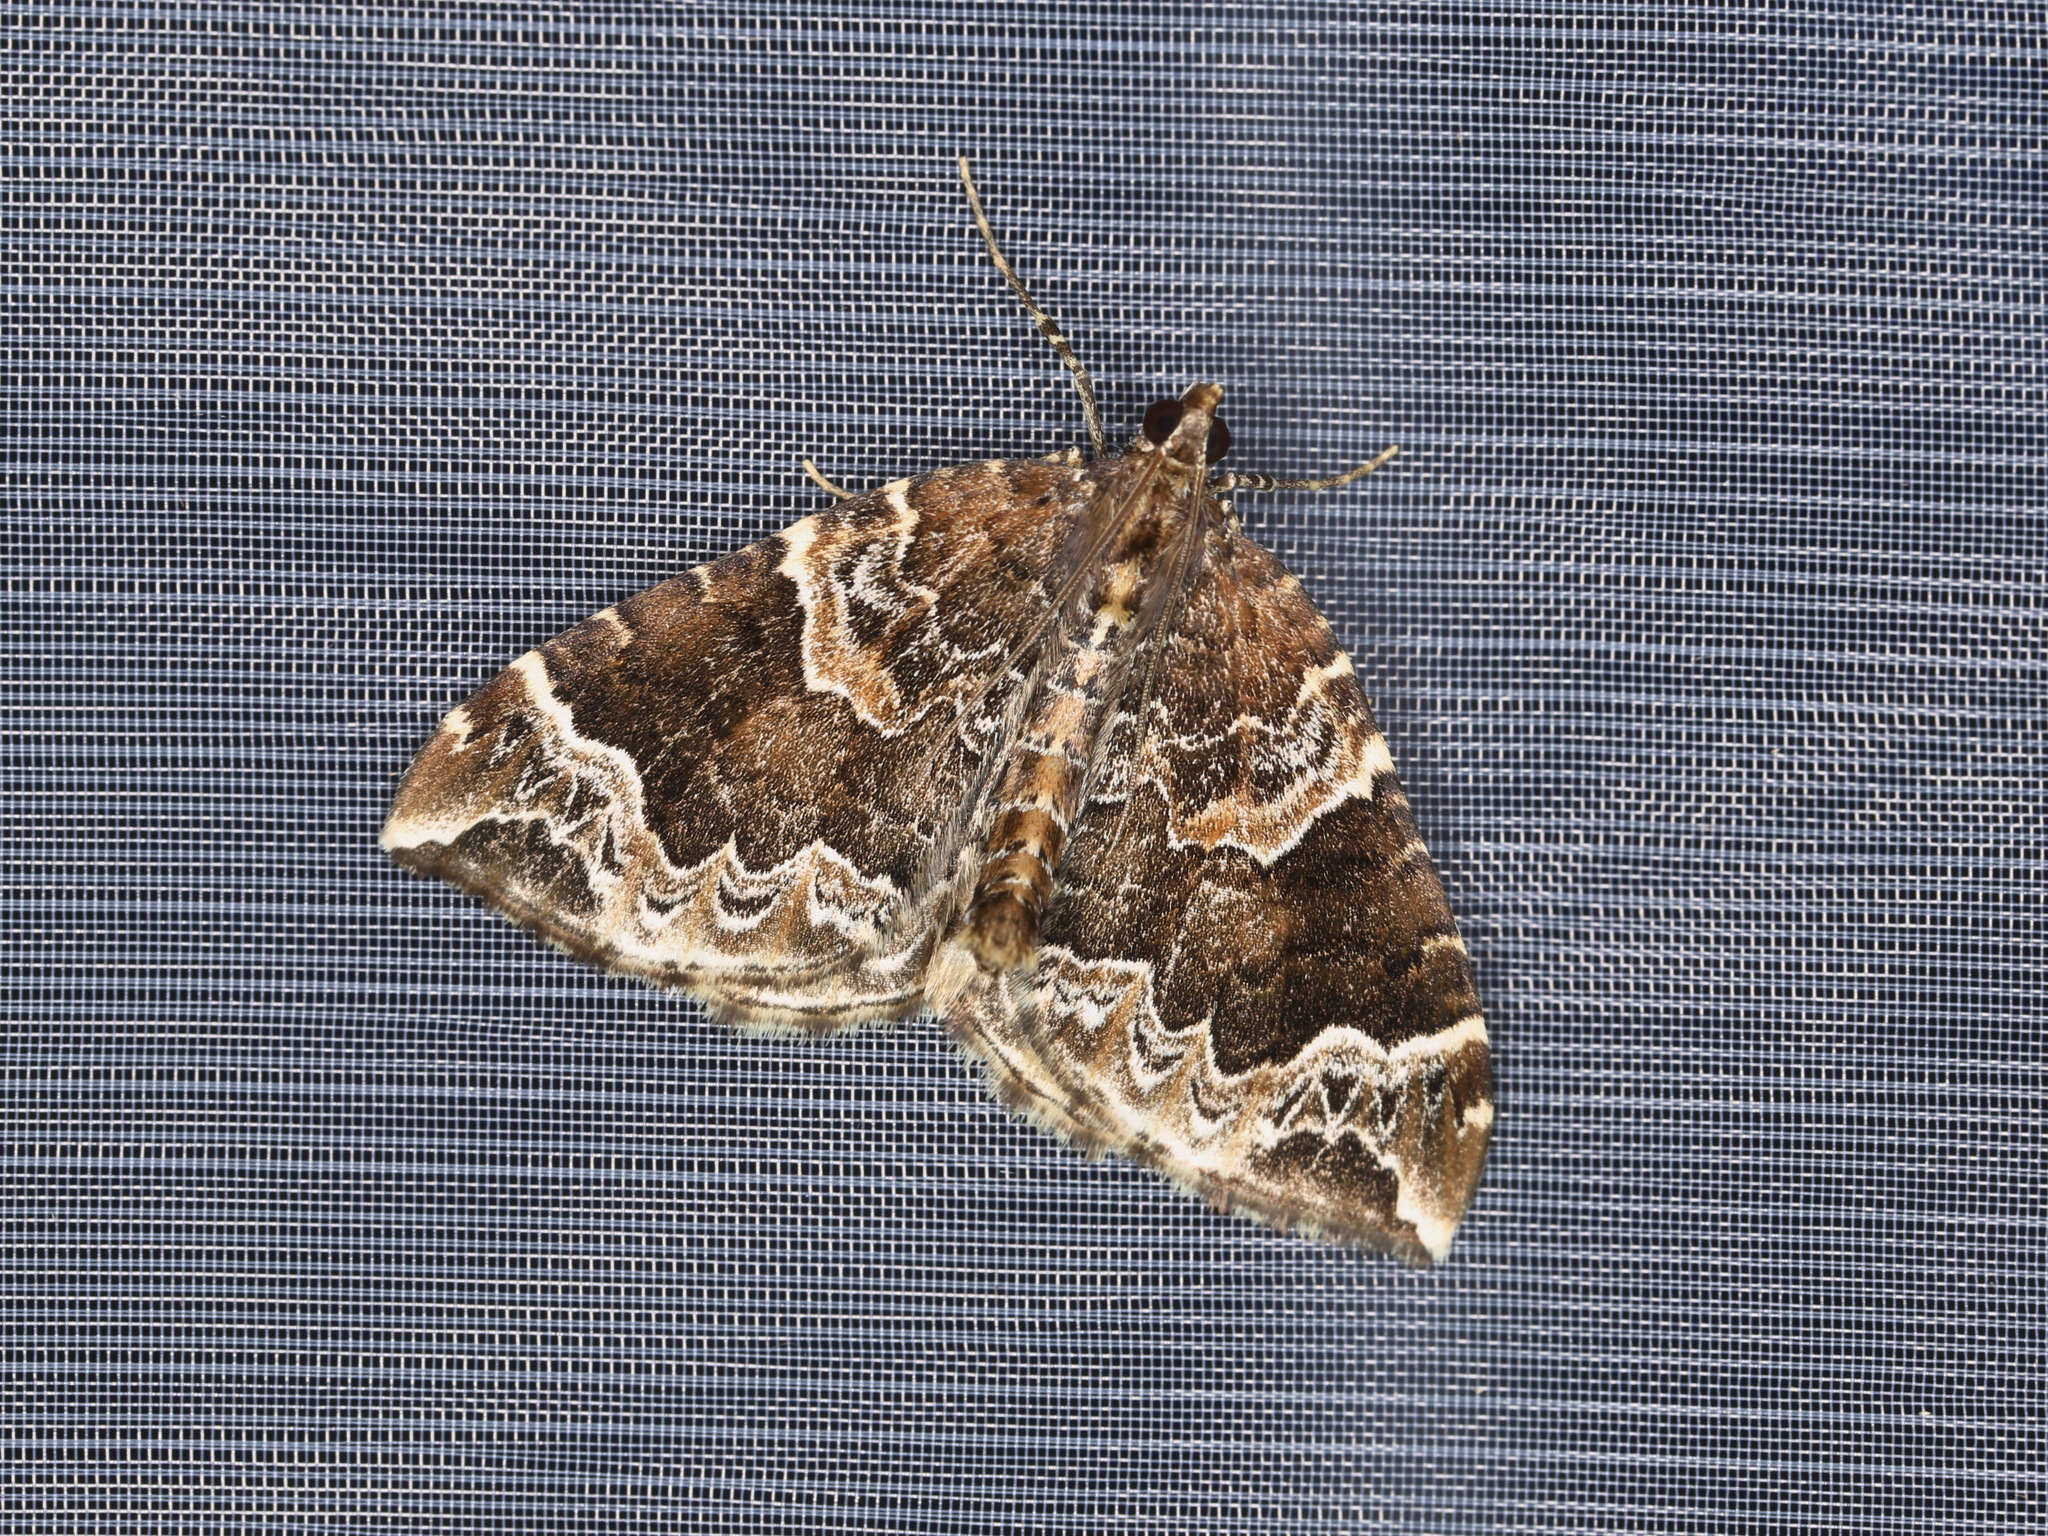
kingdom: Animalia
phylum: Arthropoda
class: Insecta
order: Lepidoptera
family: Geometridae
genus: Eulithis
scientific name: Eulithis prunata
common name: Phoenix
